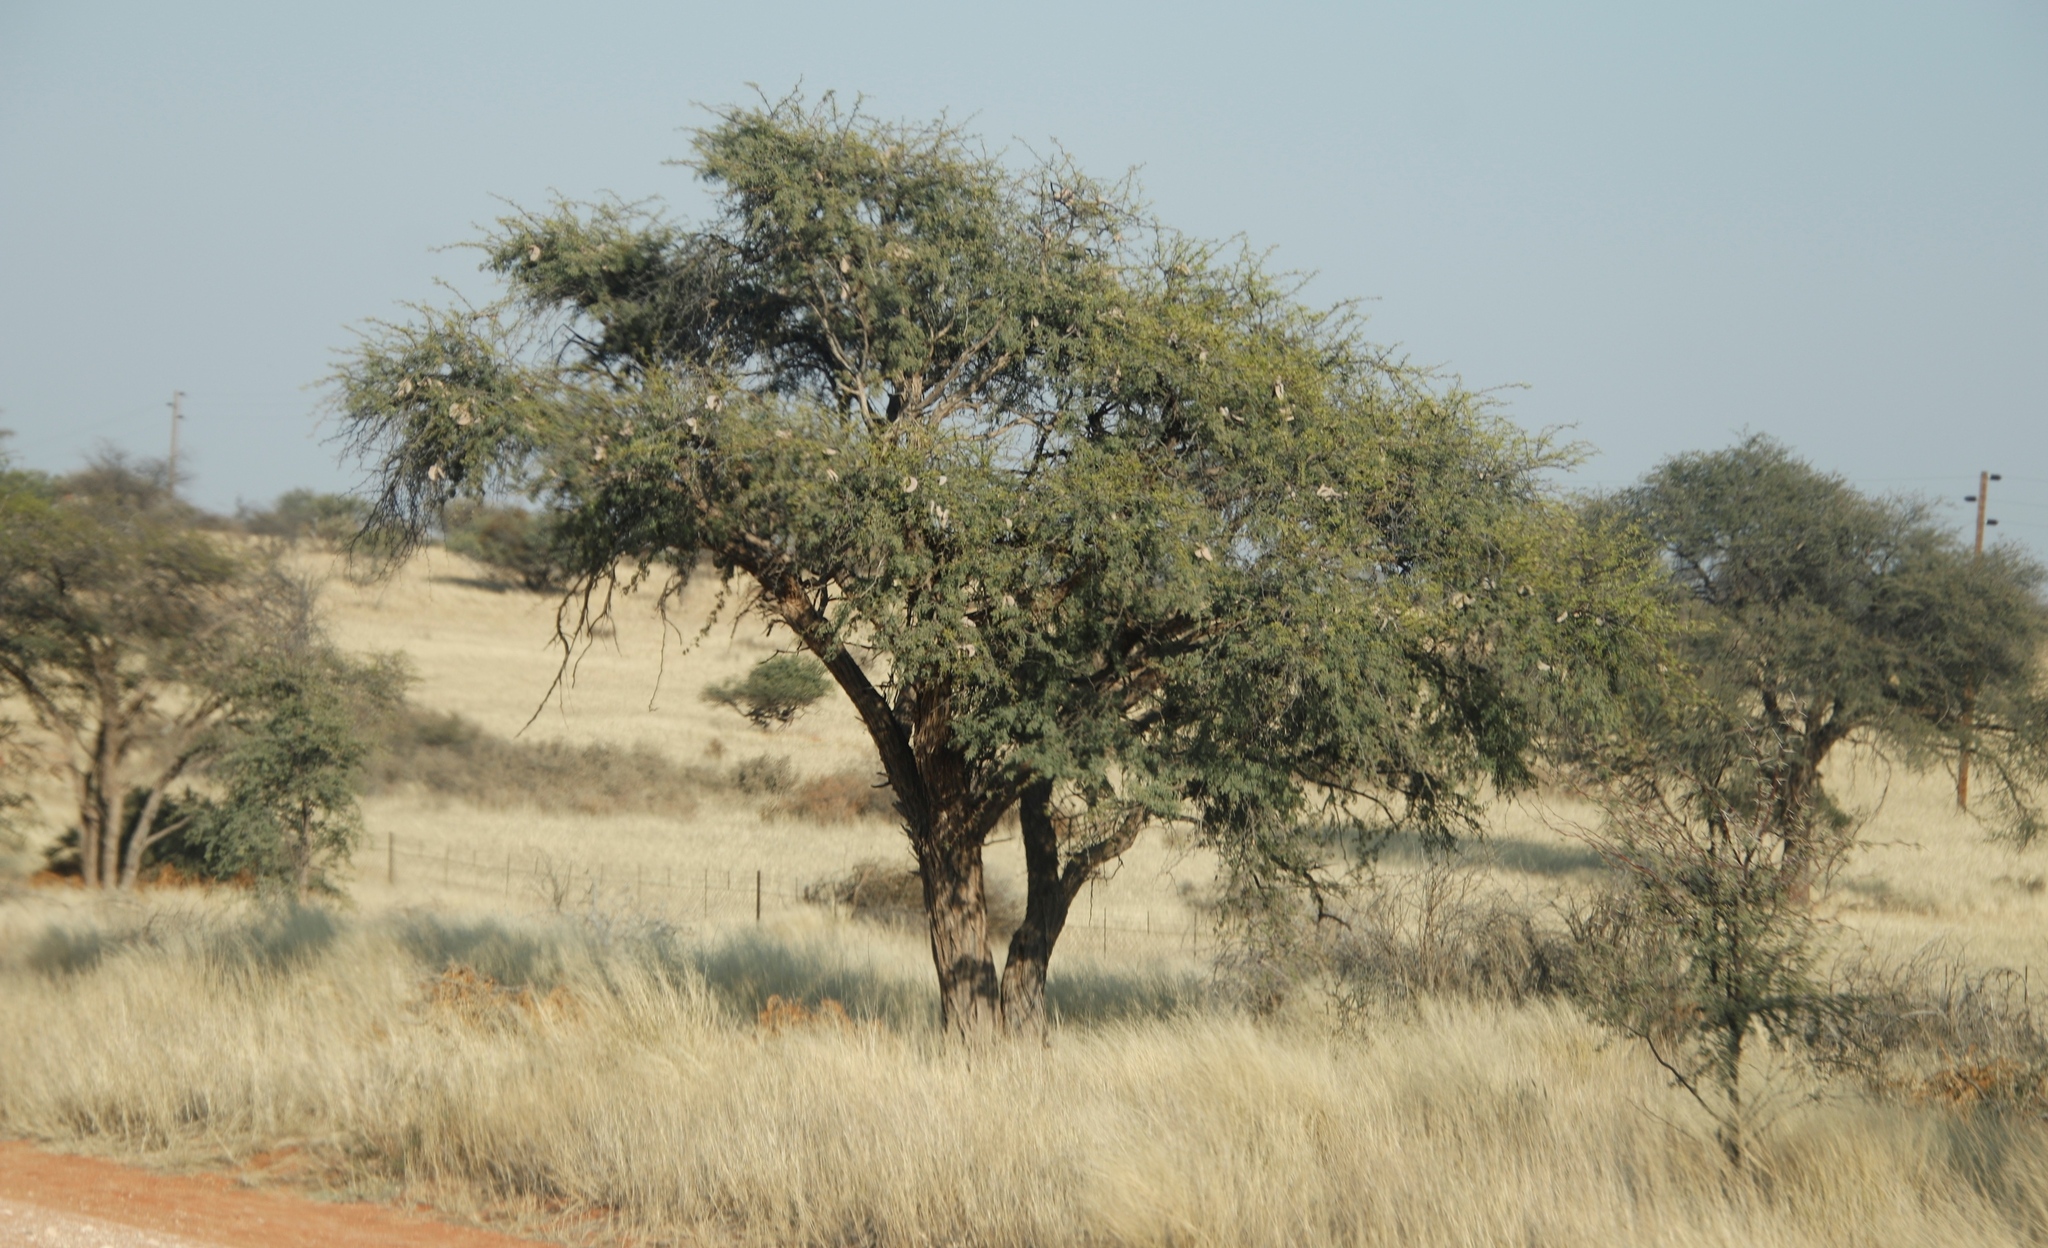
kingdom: Plantae
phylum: Tracheophyta
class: Magnoliopsida
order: Fabales
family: Fabaceae
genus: Vachellia
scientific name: Vachellia erioloba
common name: Camel thorn
